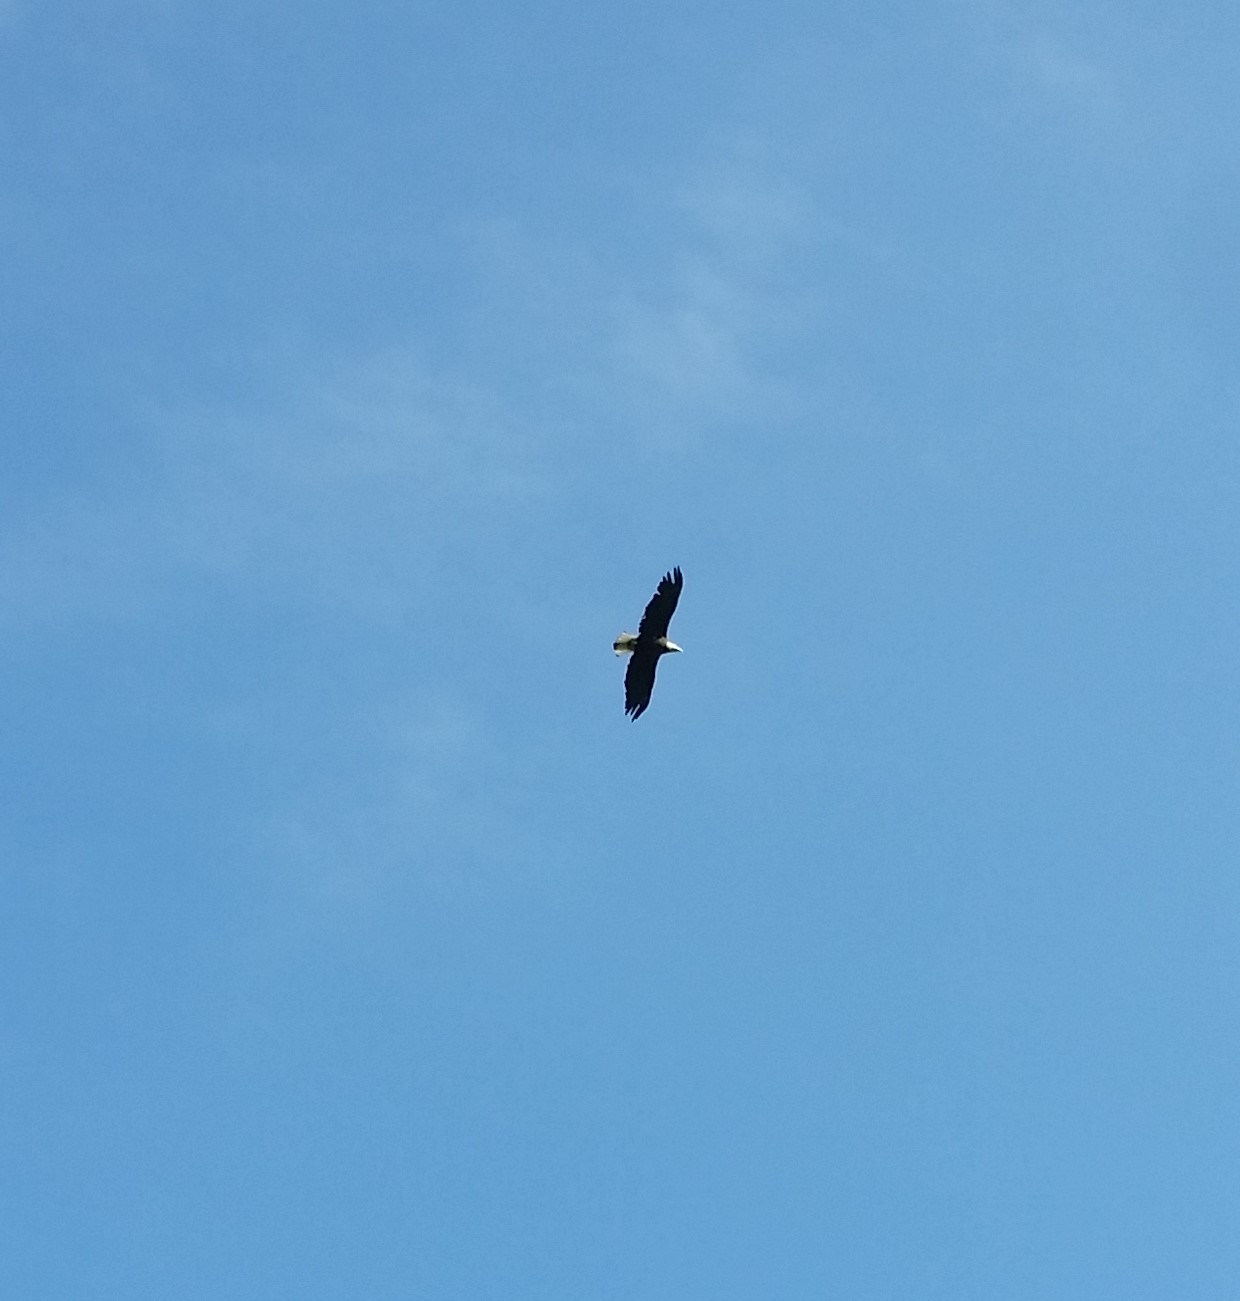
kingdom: Animalia
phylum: Chordata
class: Aves
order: Accipitriformes
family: Accipitridae
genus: Haliaeetus
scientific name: Haliaeetus leucocephalus
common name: Bald eagle
